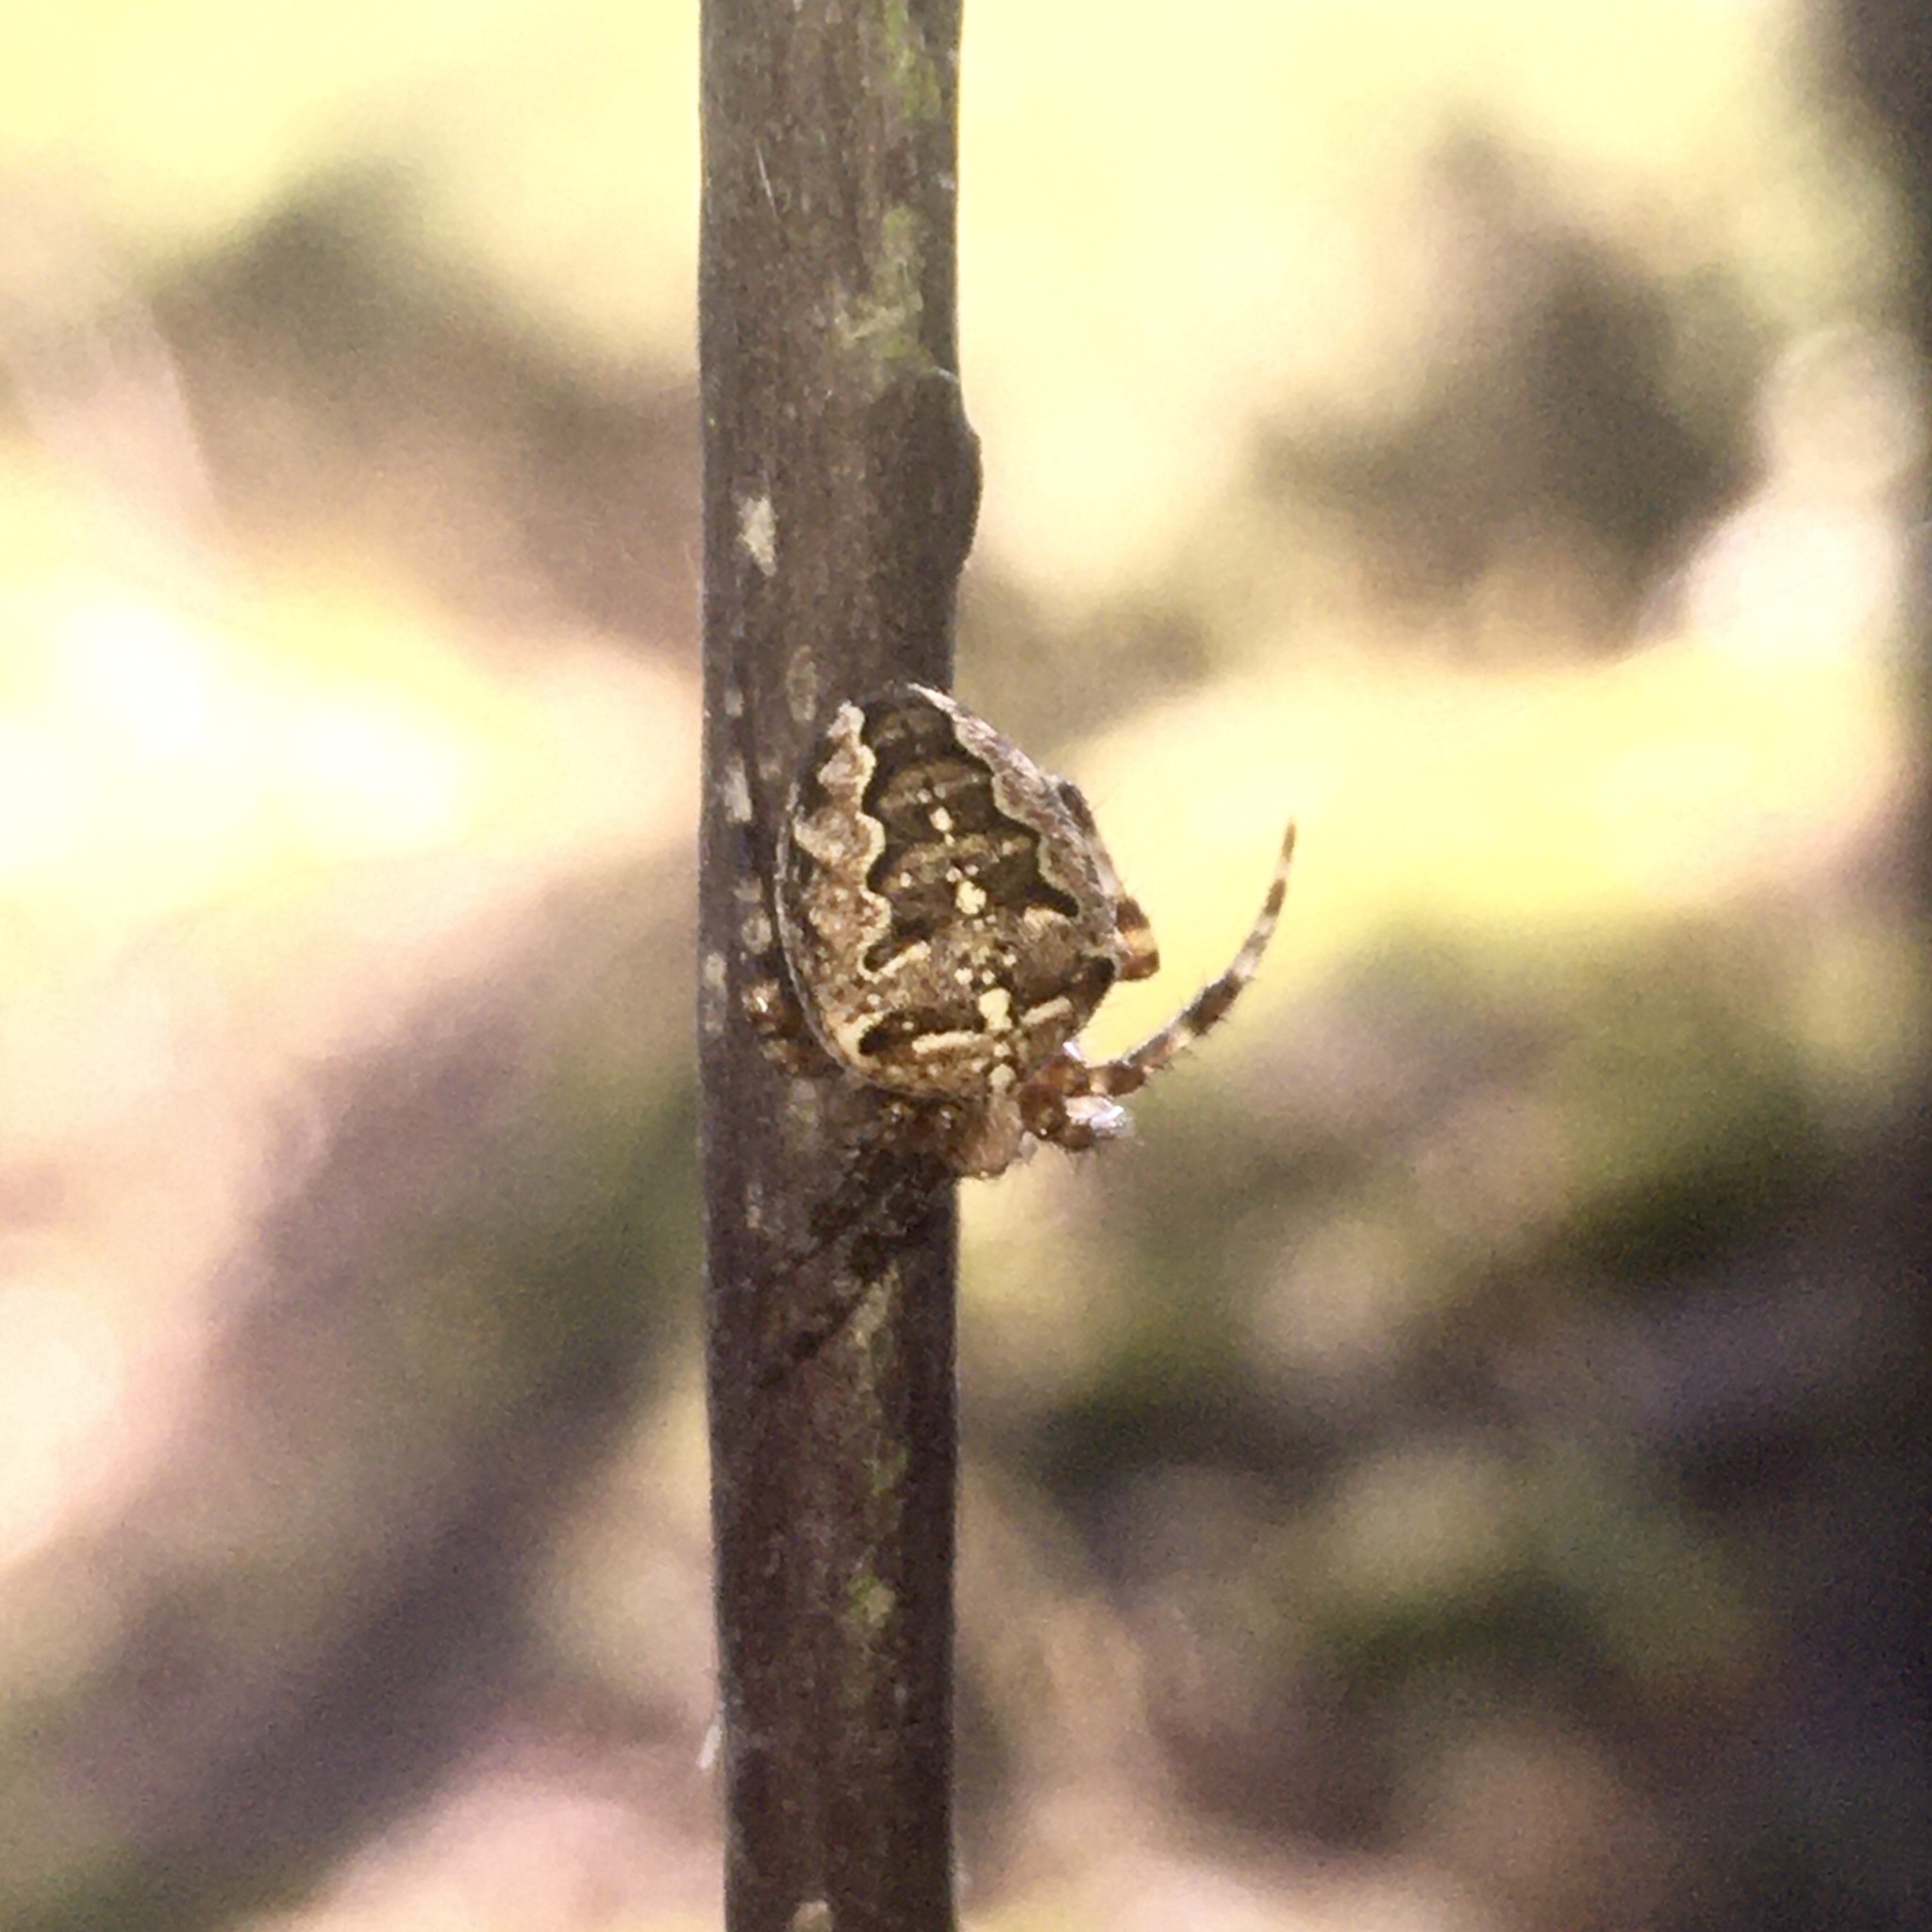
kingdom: Animalia
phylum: Arthropoda
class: Arachnida
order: Araneae
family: Araneidae
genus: Araneus
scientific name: Araneus diadematus
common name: Cross orbweaver
